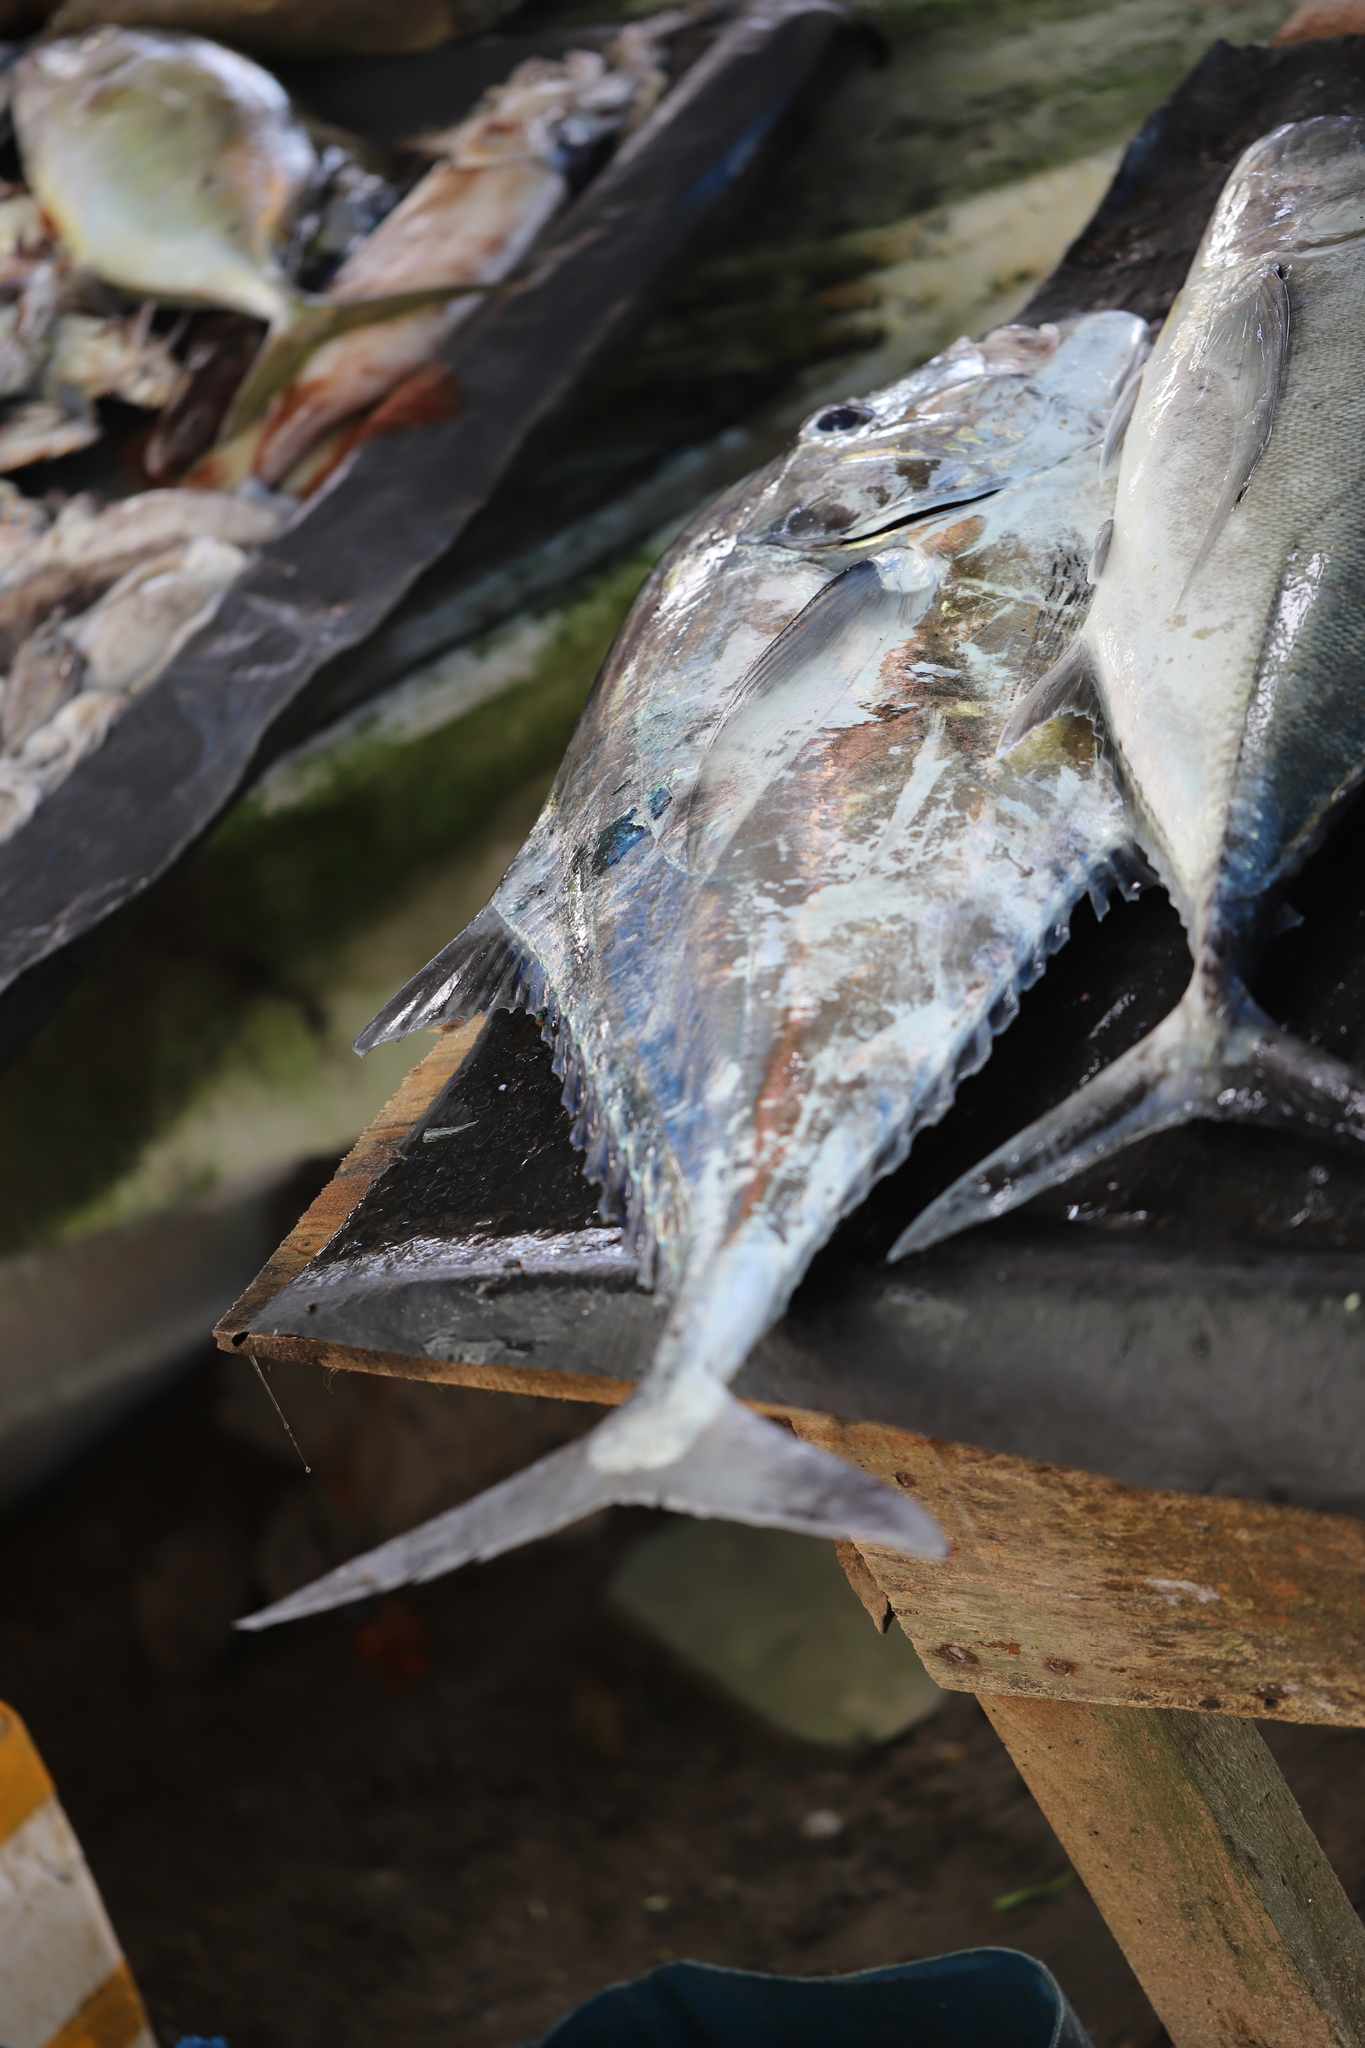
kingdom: Animalia
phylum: Chordata
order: Perciformes
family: Carangidae
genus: Alectis
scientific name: Alectis ciliaris
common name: African pompano
